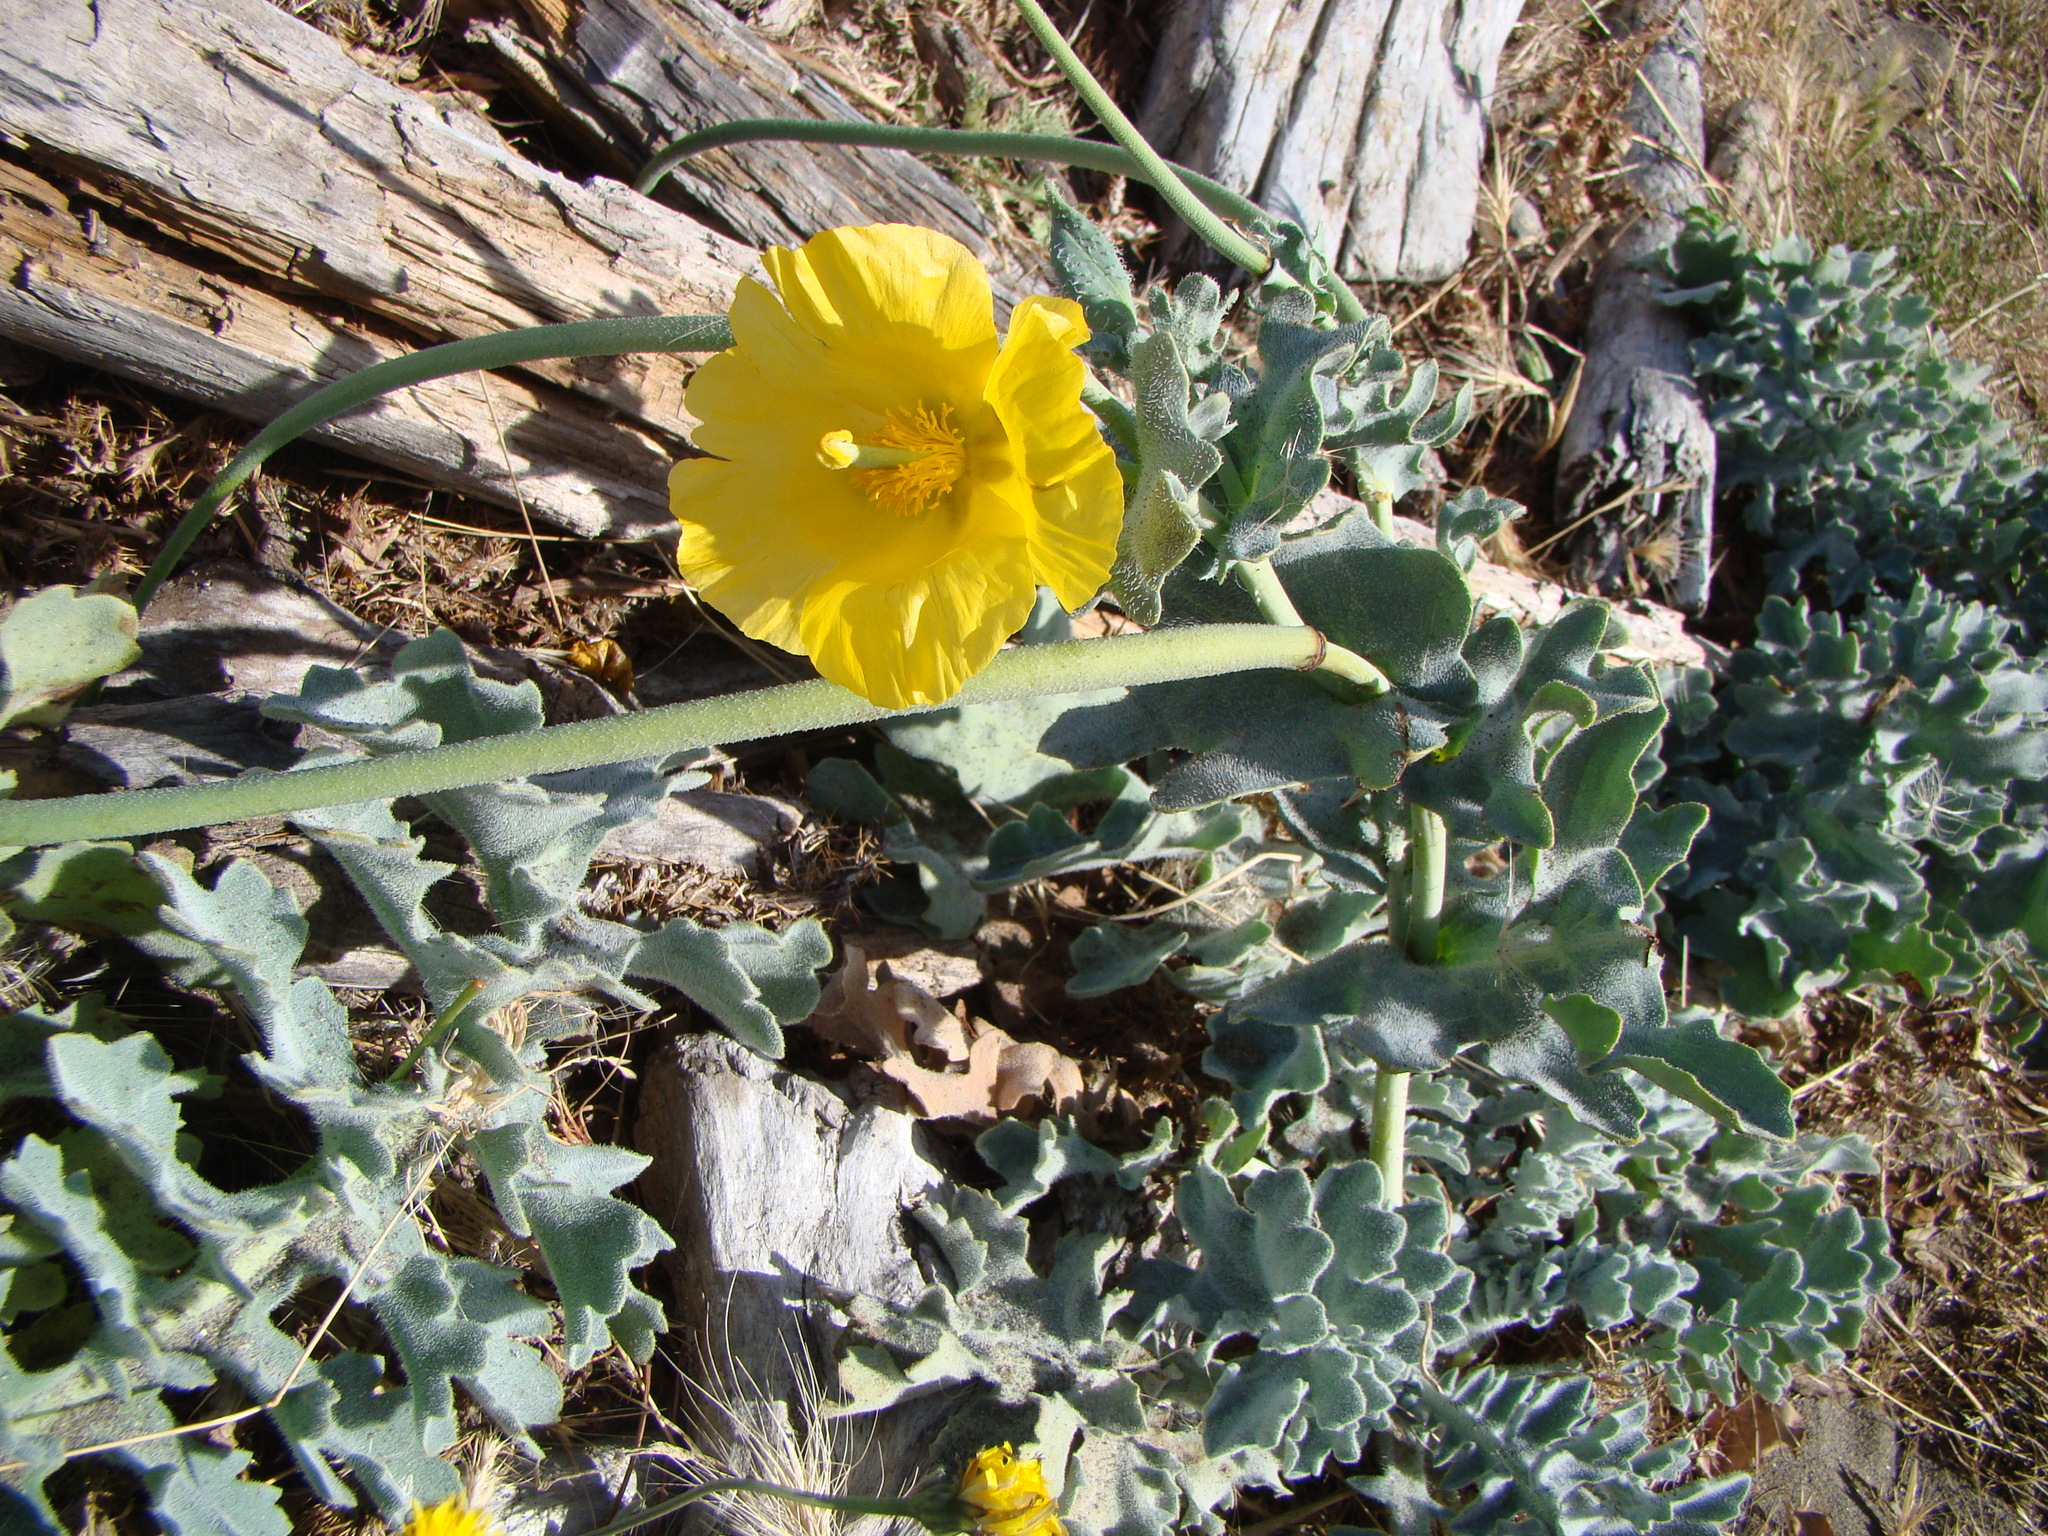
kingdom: Plantae
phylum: Tracheophyta
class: Magnoliopsida
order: Ranunculales
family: Papaveraceae
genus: Glaucium
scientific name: Glaucium flavum
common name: Yellow horned-poppy
